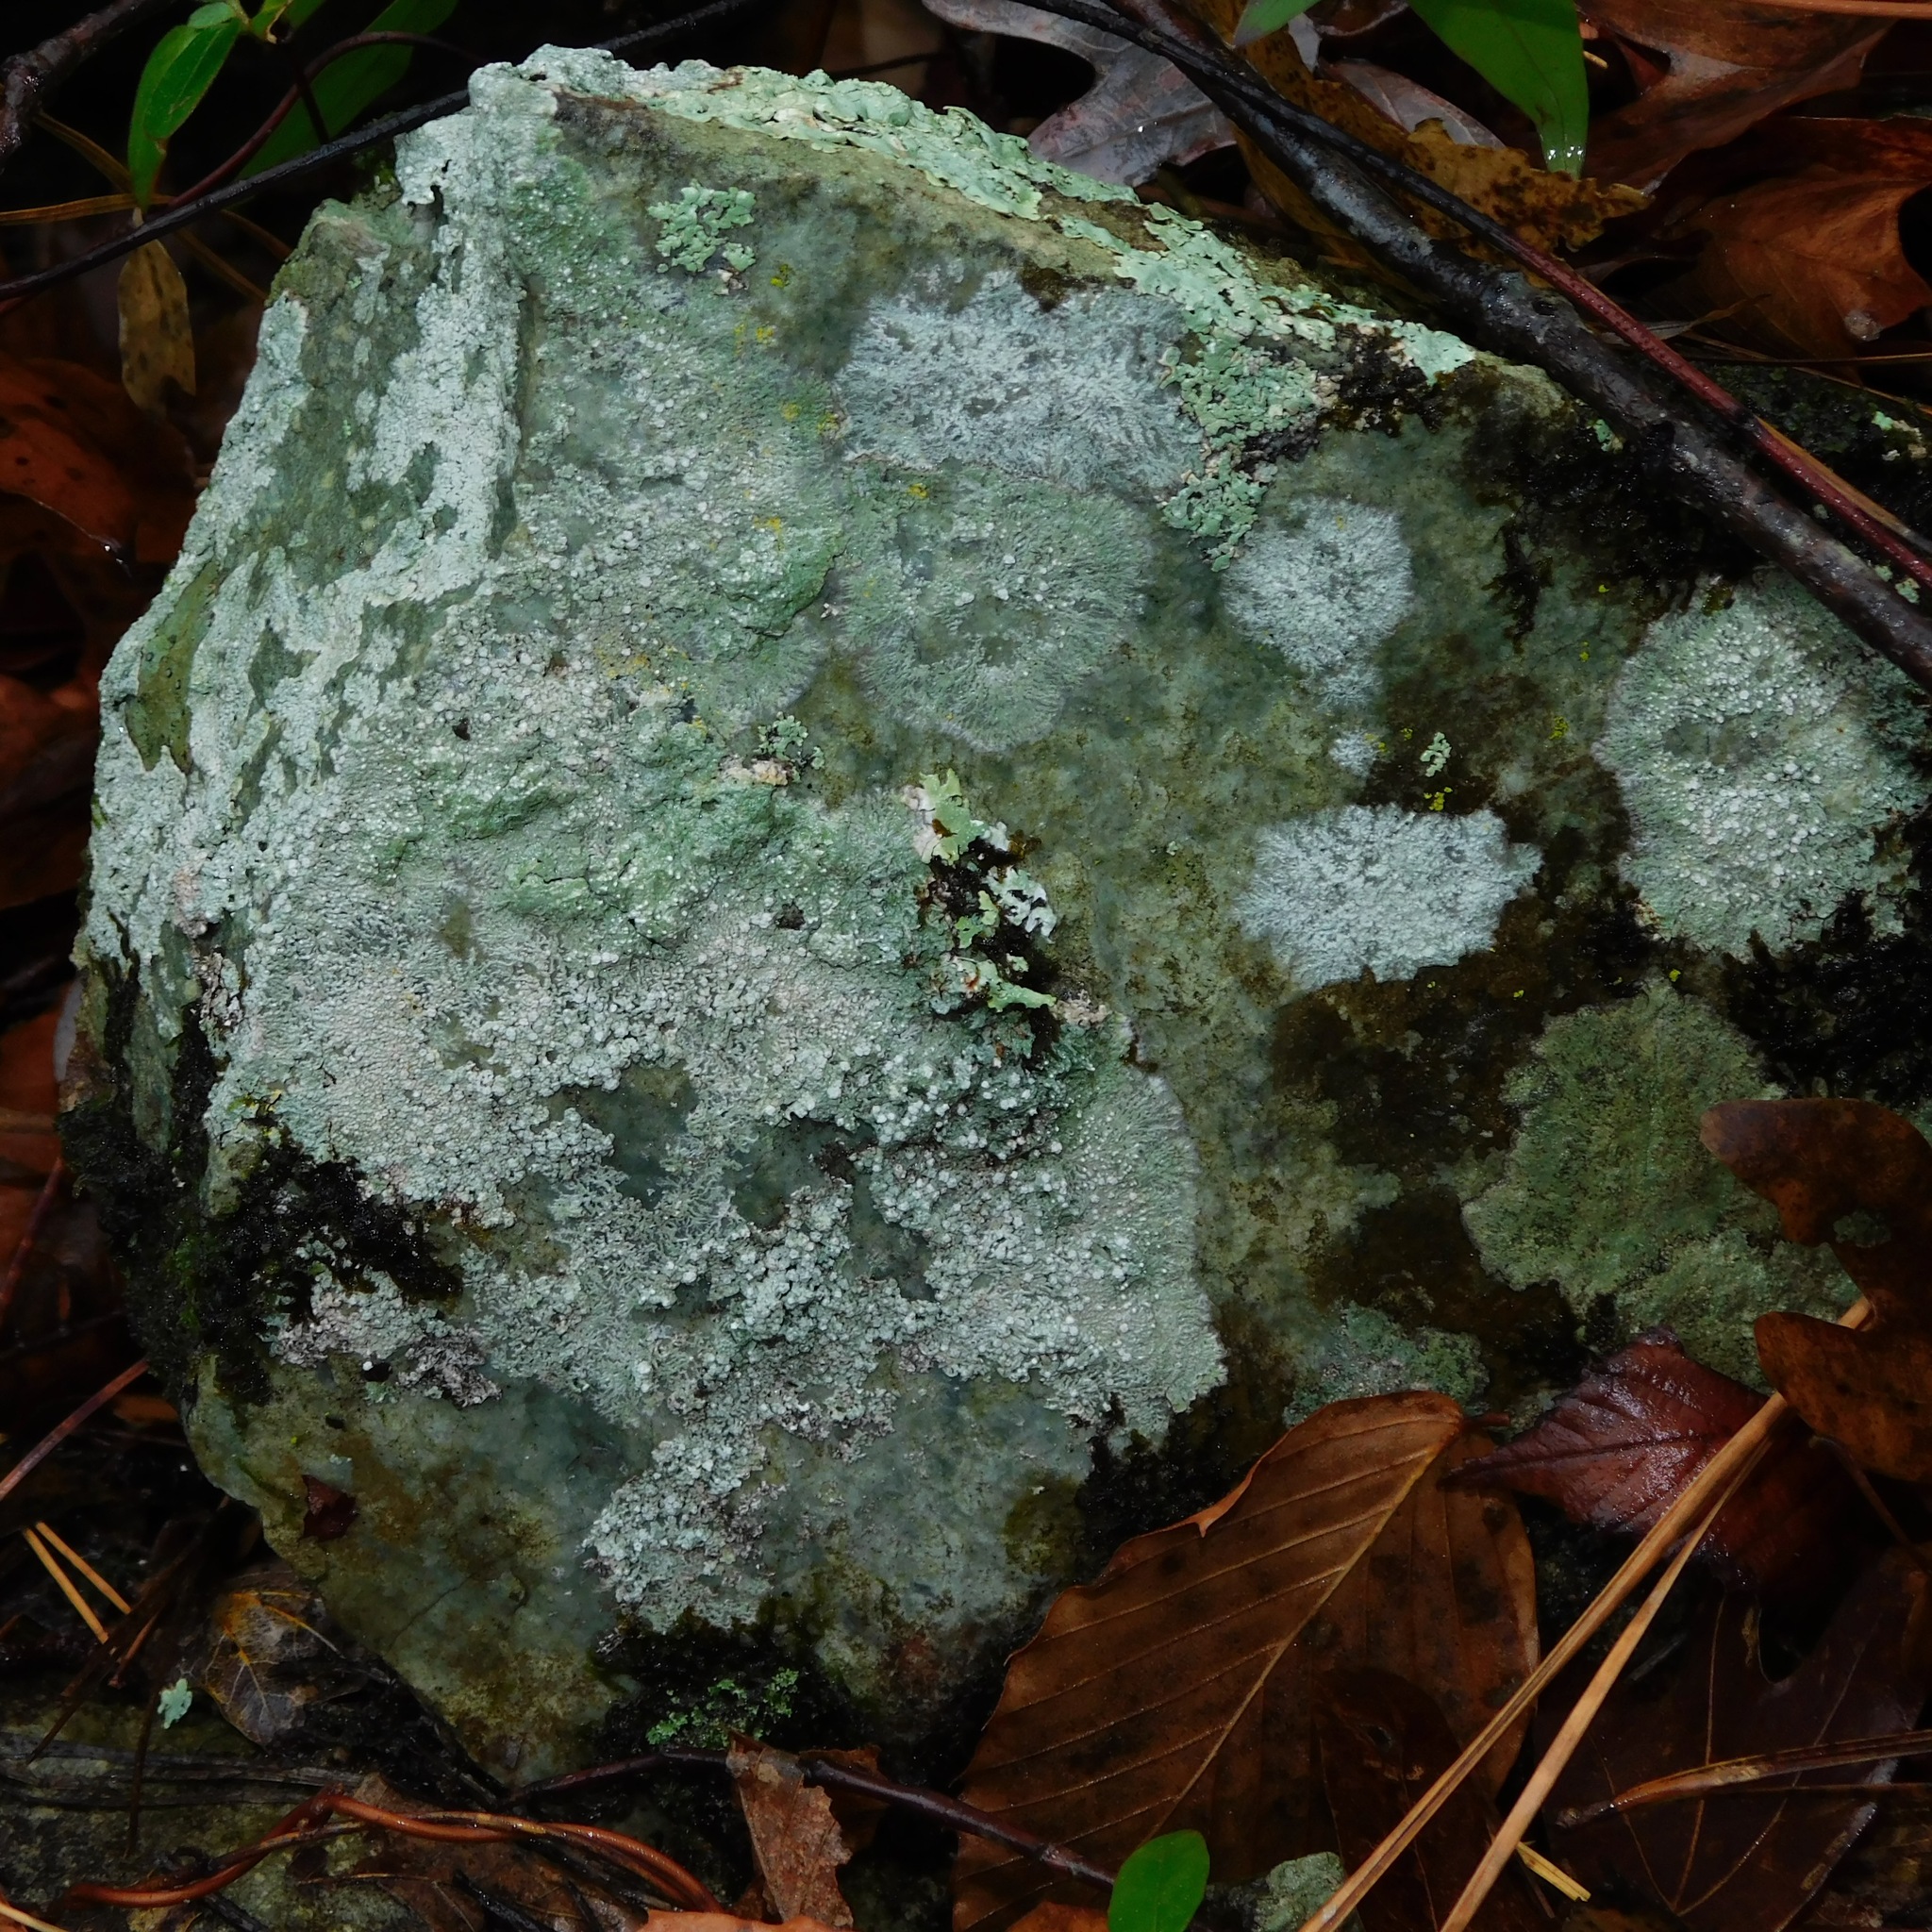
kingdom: Fungi
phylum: Ascomycota
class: Lecanoromycetes
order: Pertusariales
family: Pertusariaceae
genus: Lepra
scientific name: Lepra excludens
